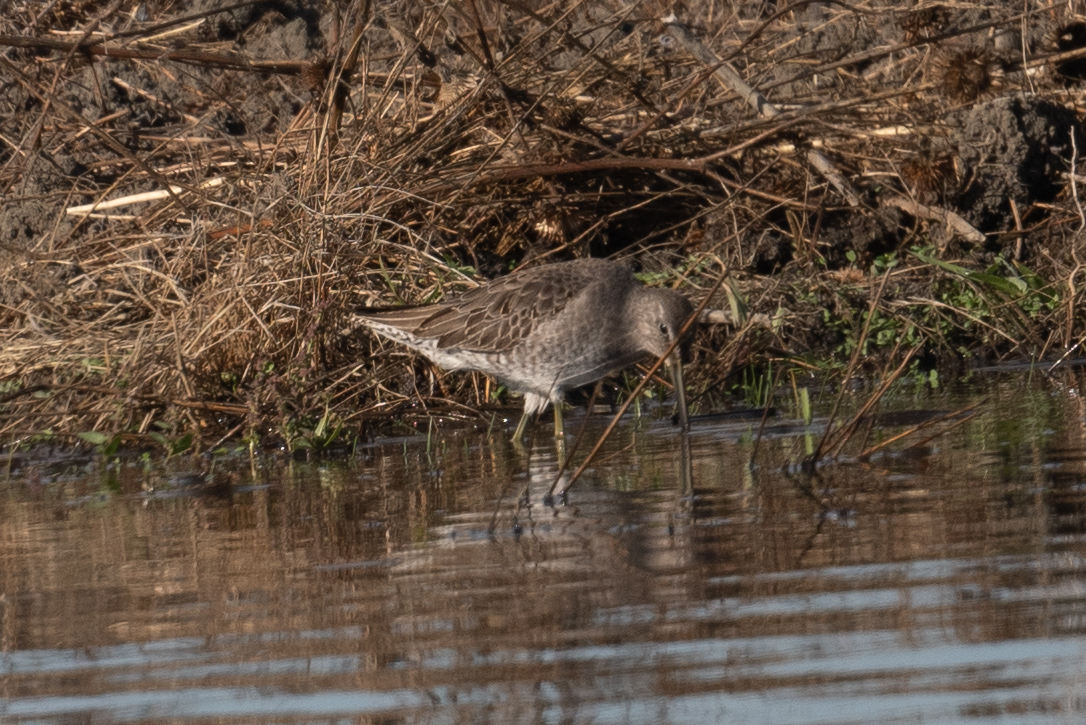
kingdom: Animalia
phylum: Chordata
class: Aves
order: Charadriiformes
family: Scolopacidae
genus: Limnodromus
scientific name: Limnodromus scolopaceus
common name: Long-billed dowitcher
